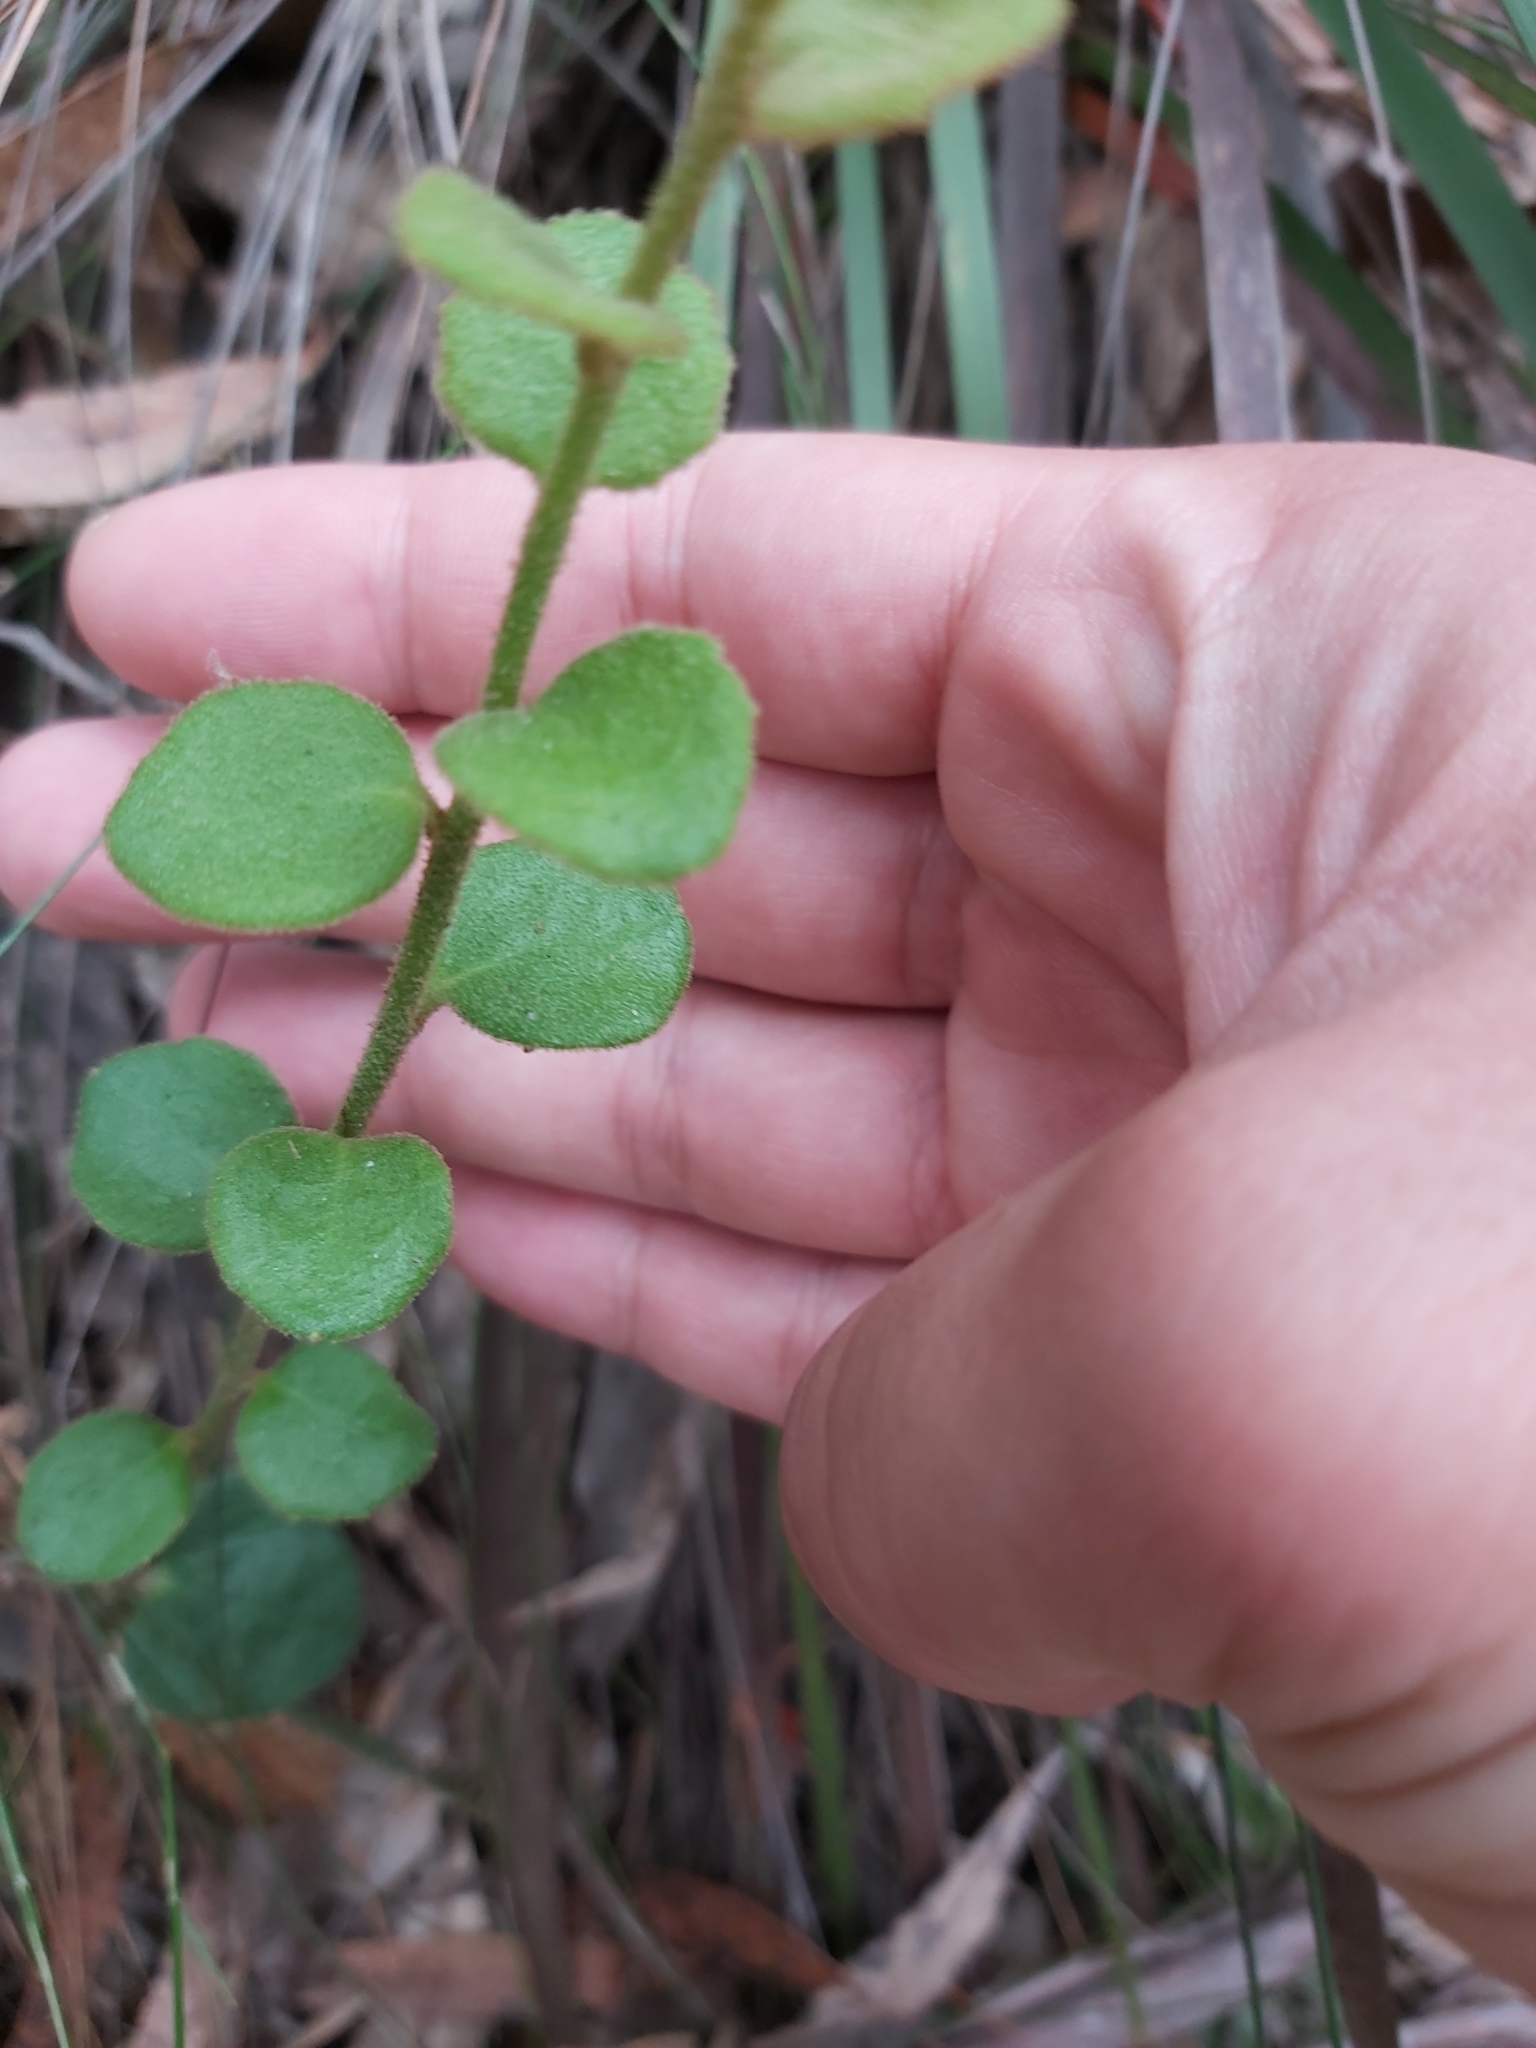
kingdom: Plantae
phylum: Tracheophyta
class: Magnoliopsida
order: Asterales
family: Goodeniaceae
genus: Dampiera
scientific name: Dampiera purpurea
